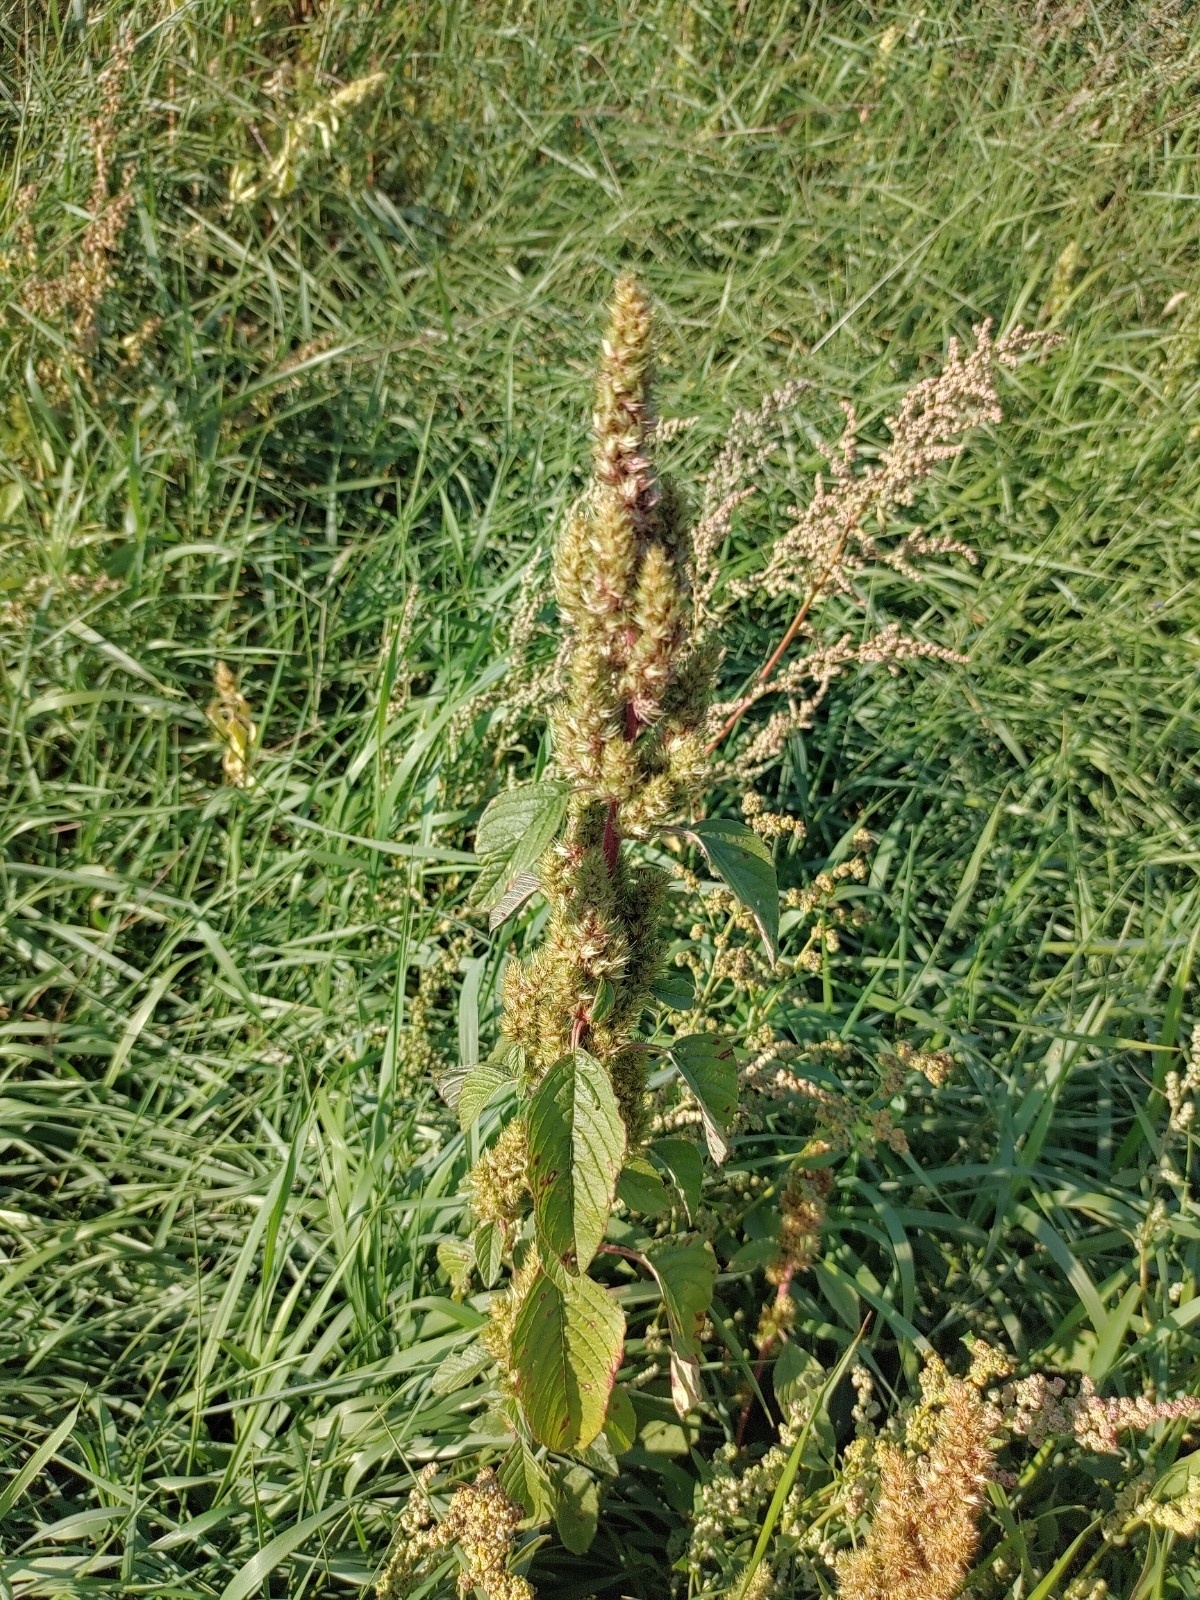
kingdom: Plantae
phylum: Tracheophyta
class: Magnoliopsida
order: Caryophyllales
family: Amaranthaceae
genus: Amaranthus
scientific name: Amaranthus retroflexus
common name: Redroot amaranth
